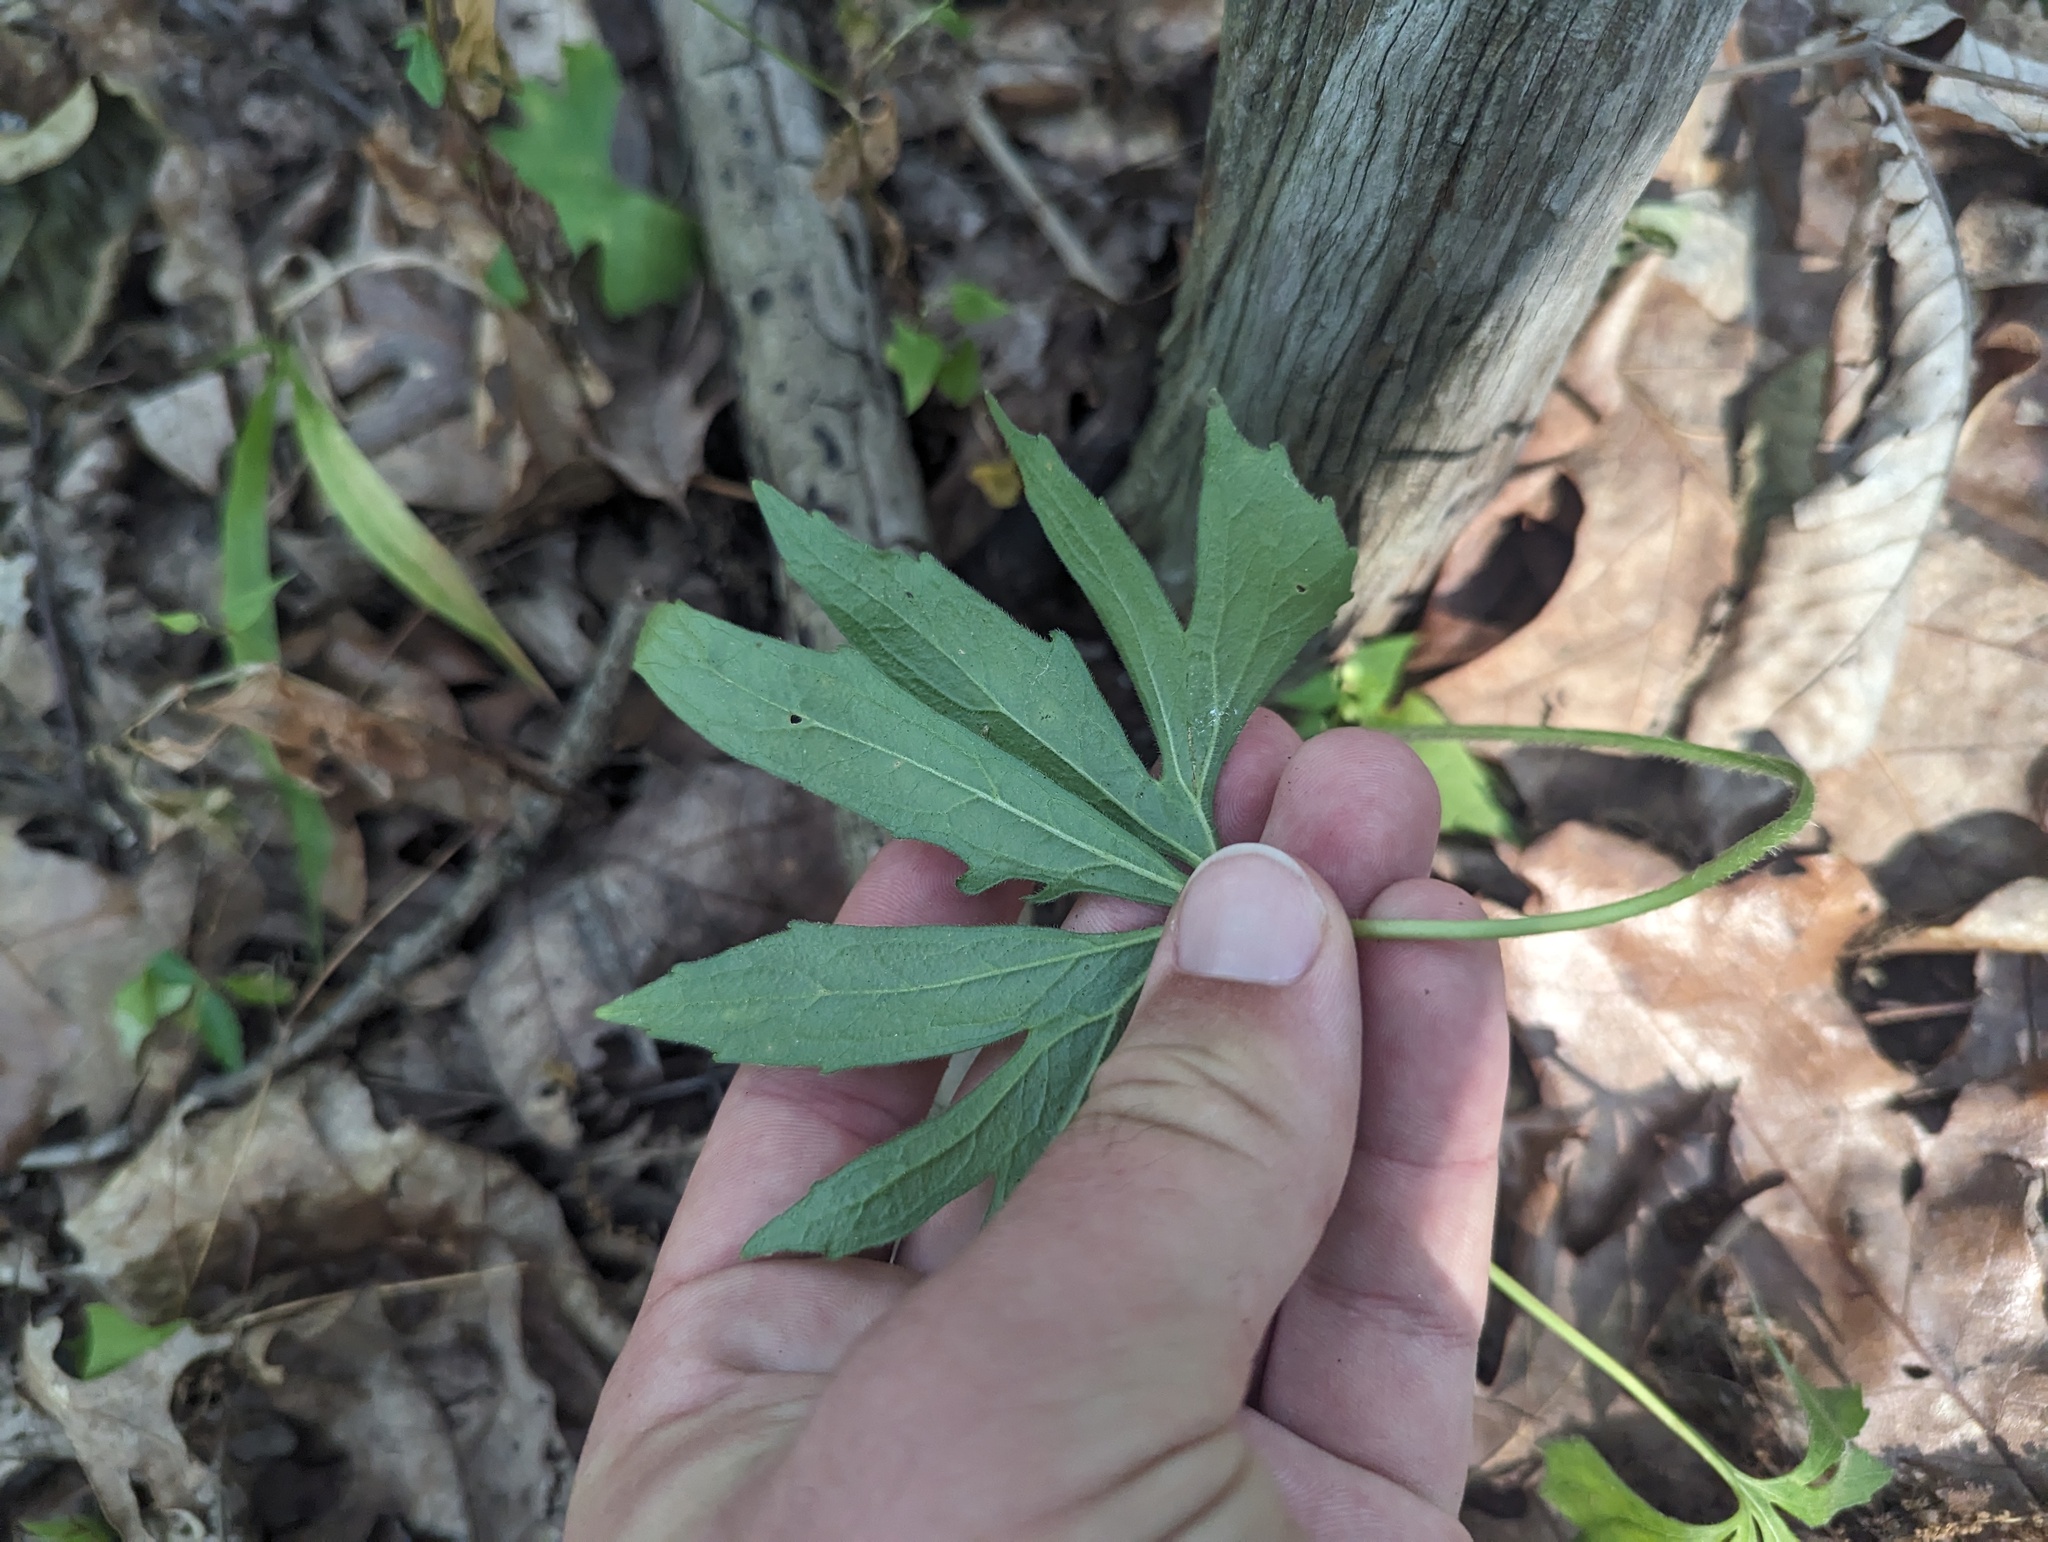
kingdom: Plantae
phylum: Tracheophyta
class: Magnoliopsida
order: Malpighiales
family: Violaceae
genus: Viola
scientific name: Viola palmata
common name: Early blue violet
